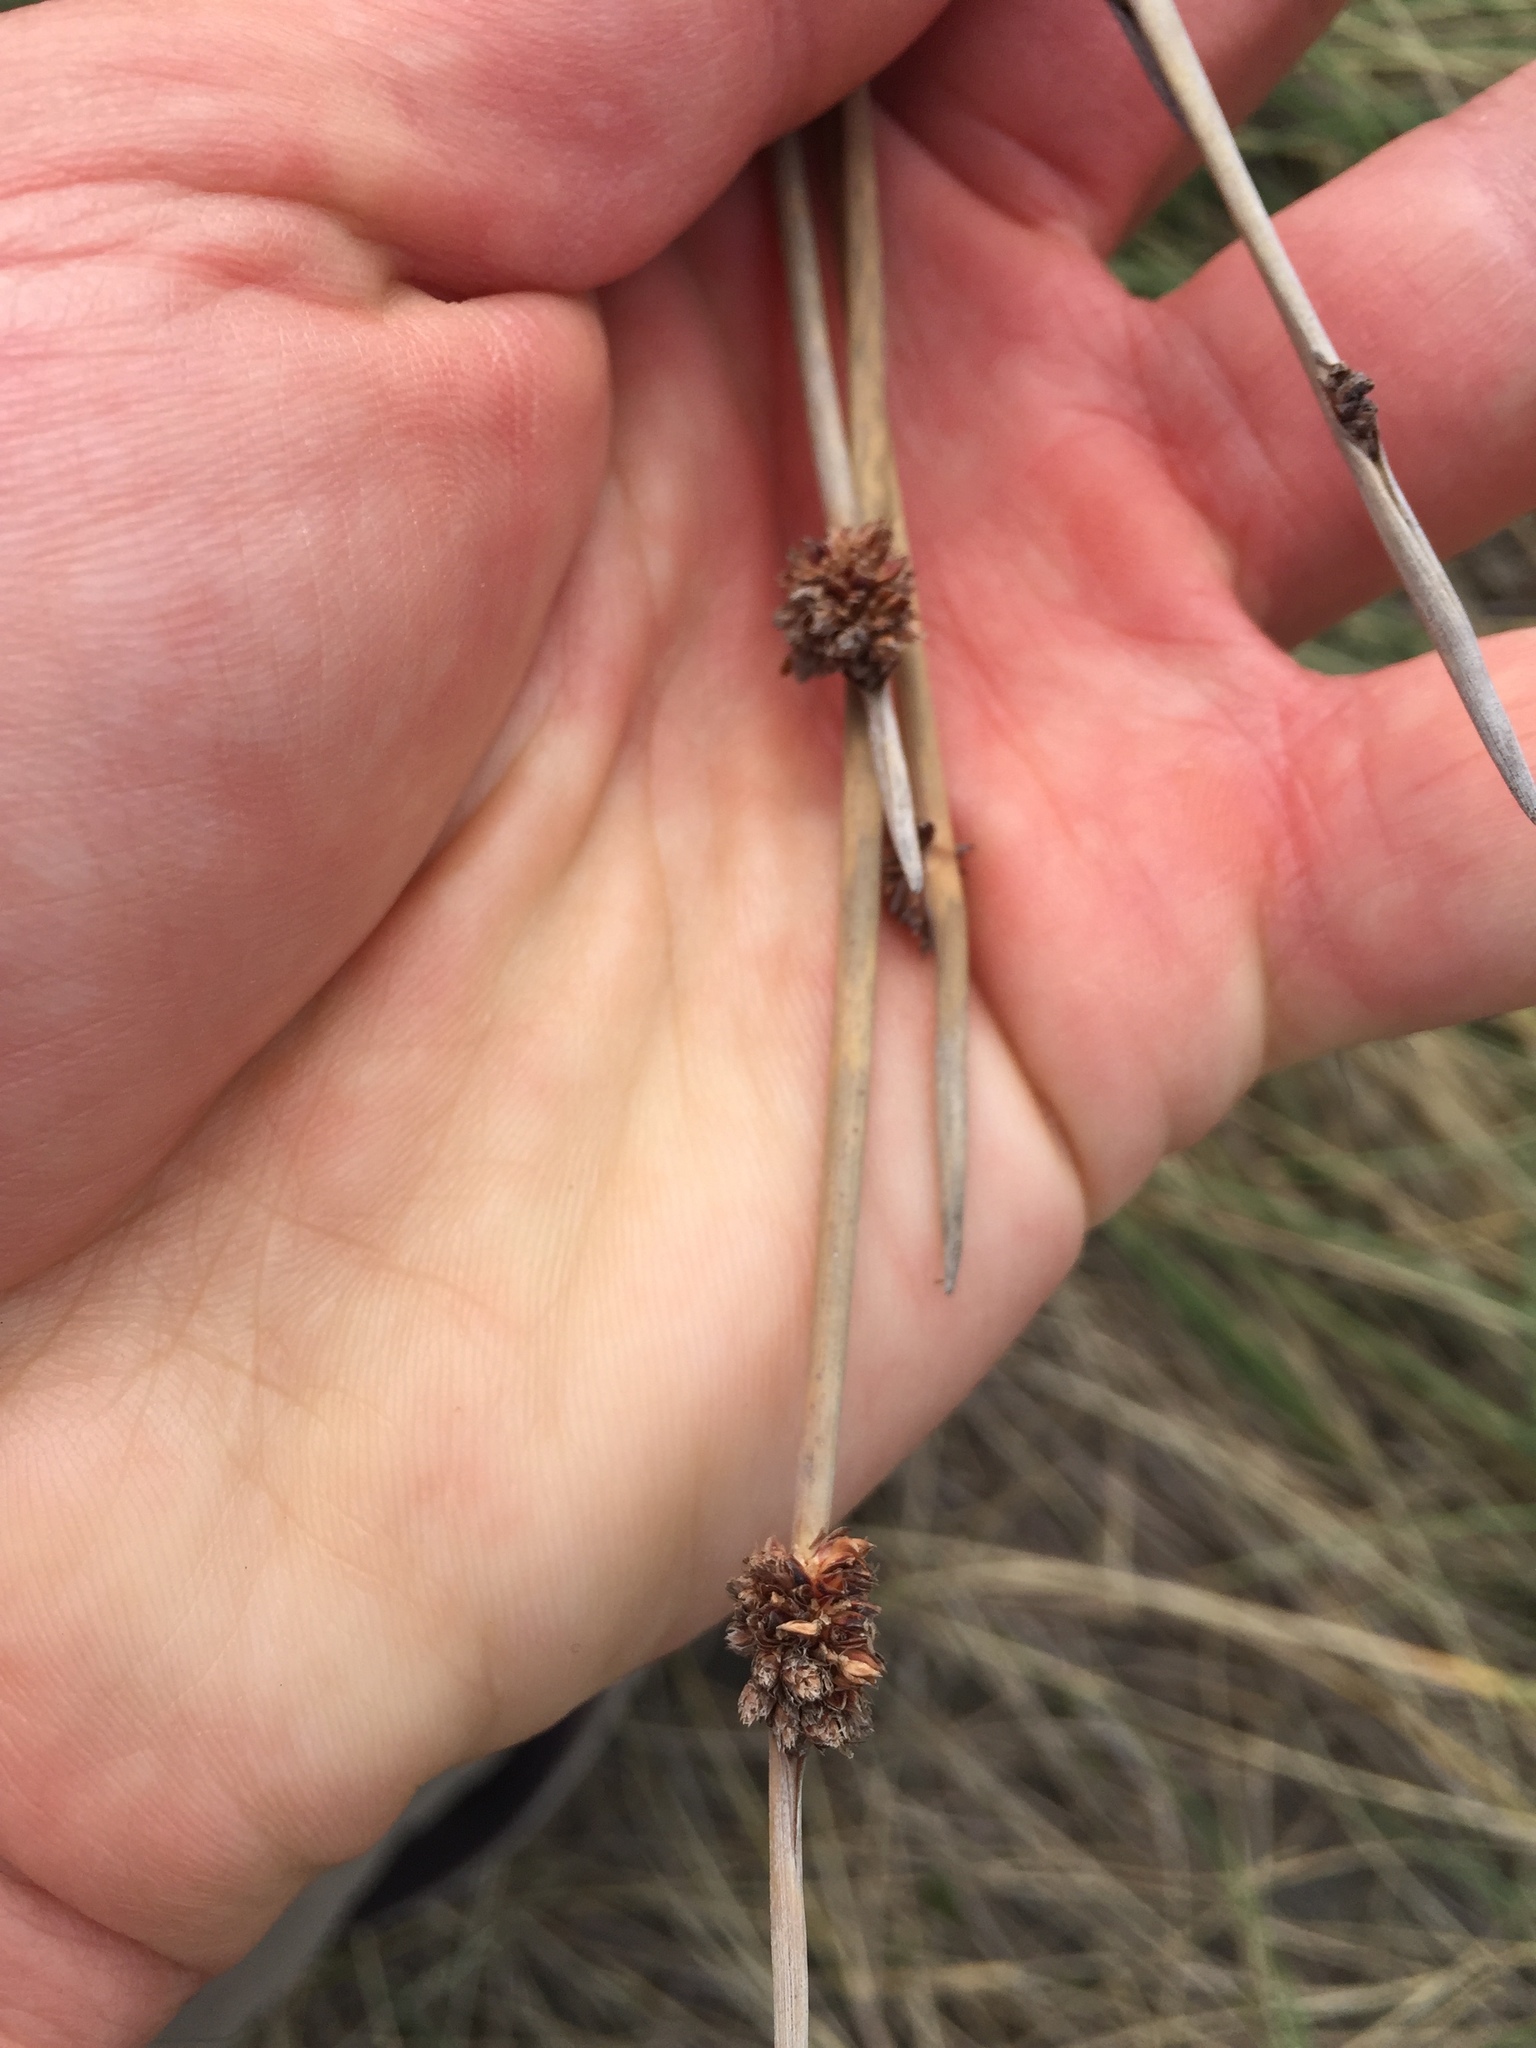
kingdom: Plantae
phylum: Tracheophyta
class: Liliopsida
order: Poales
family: Cyperaceae
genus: Ficinia
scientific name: Ficinia nodosa
